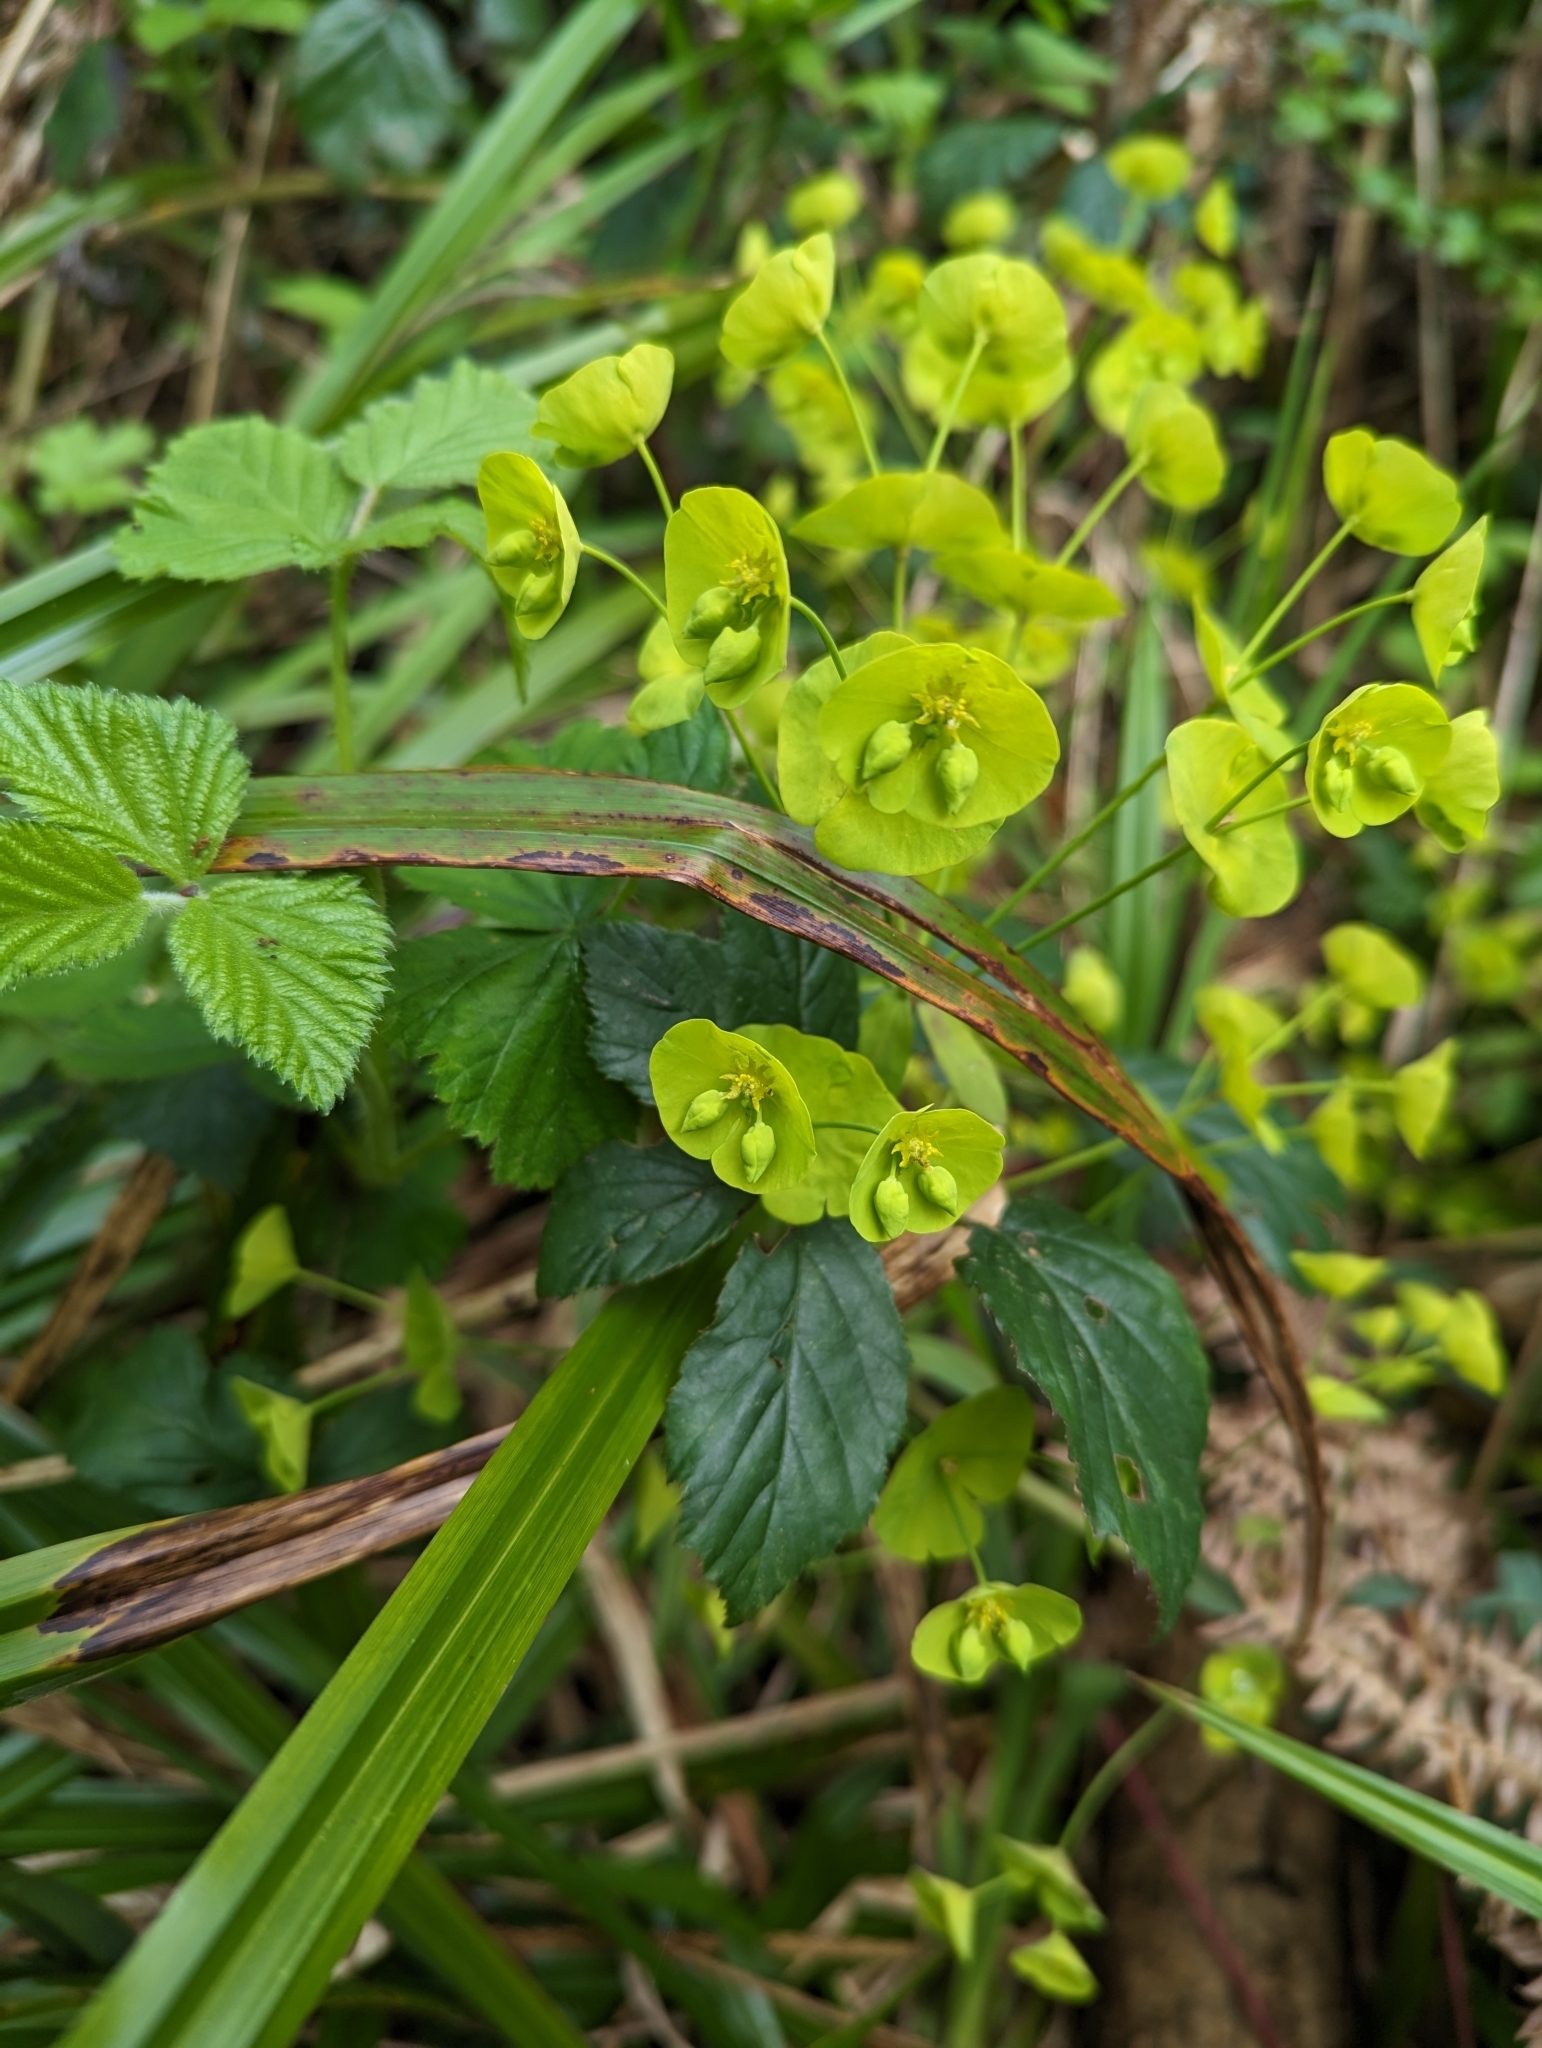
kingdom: Plantae
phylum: Tracheophyta
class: Magnoliopsida
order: Malpighiales
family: Euphorbiaceae
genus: Euphorbia
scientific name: Euphorbia amygdaloides
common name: Wood spurge
